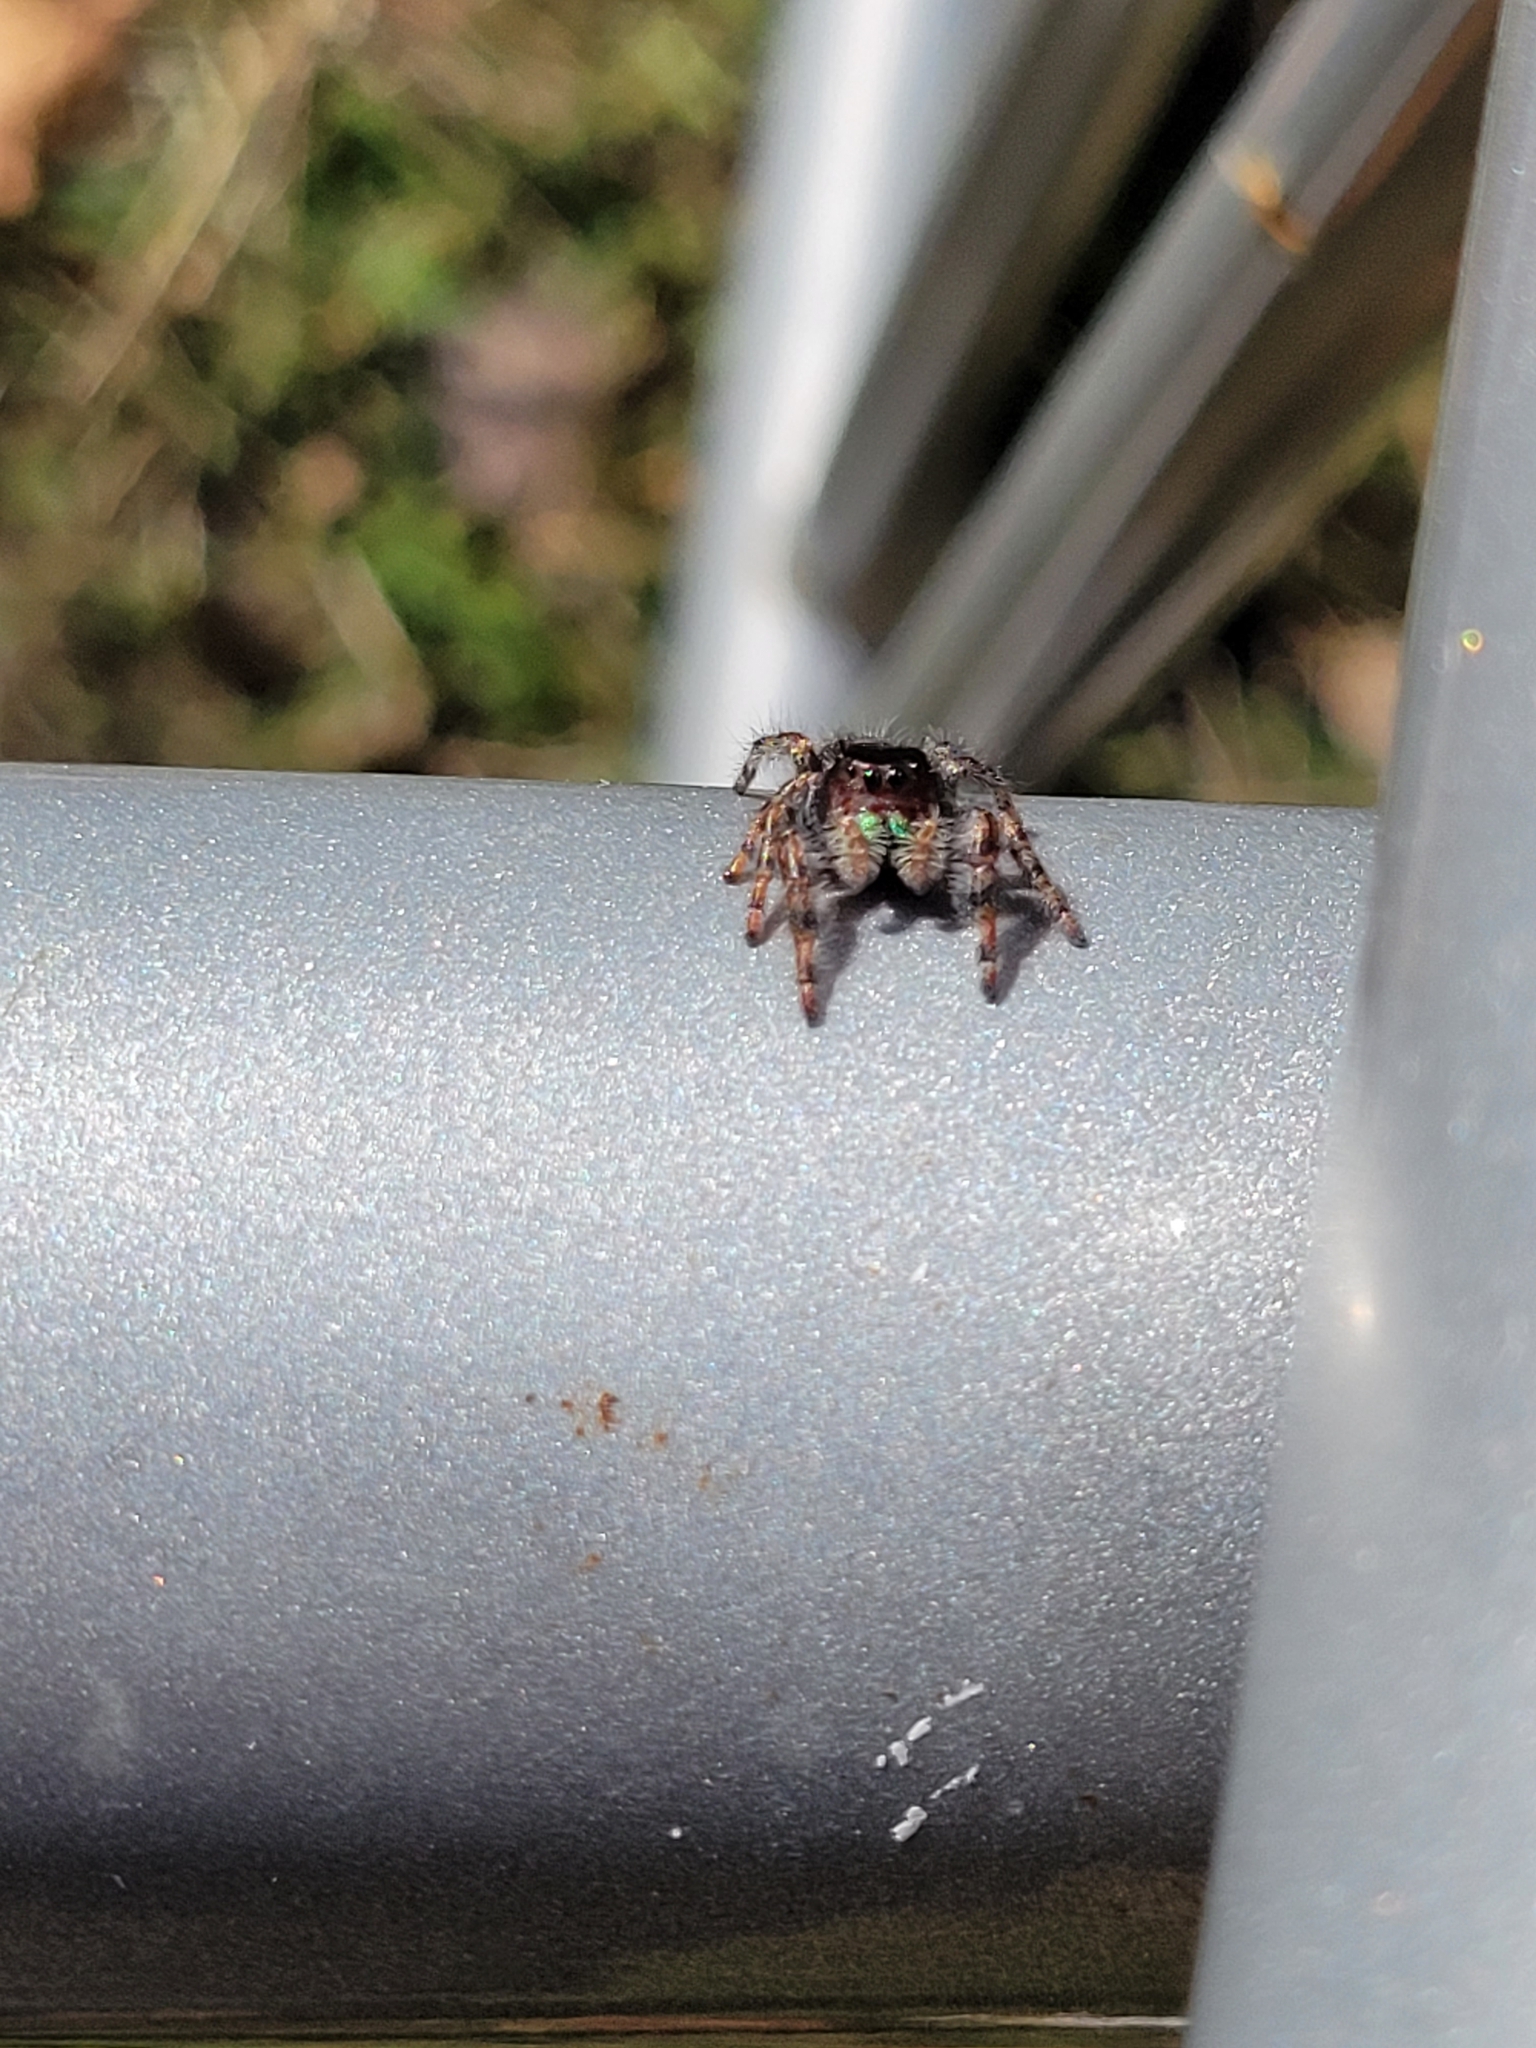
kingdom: Animalia
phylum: Arthropoda
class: Arachnida
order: Araneae
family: Salticidae
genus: Phidippus
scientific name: Phidippus audax
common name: Bold jumper
